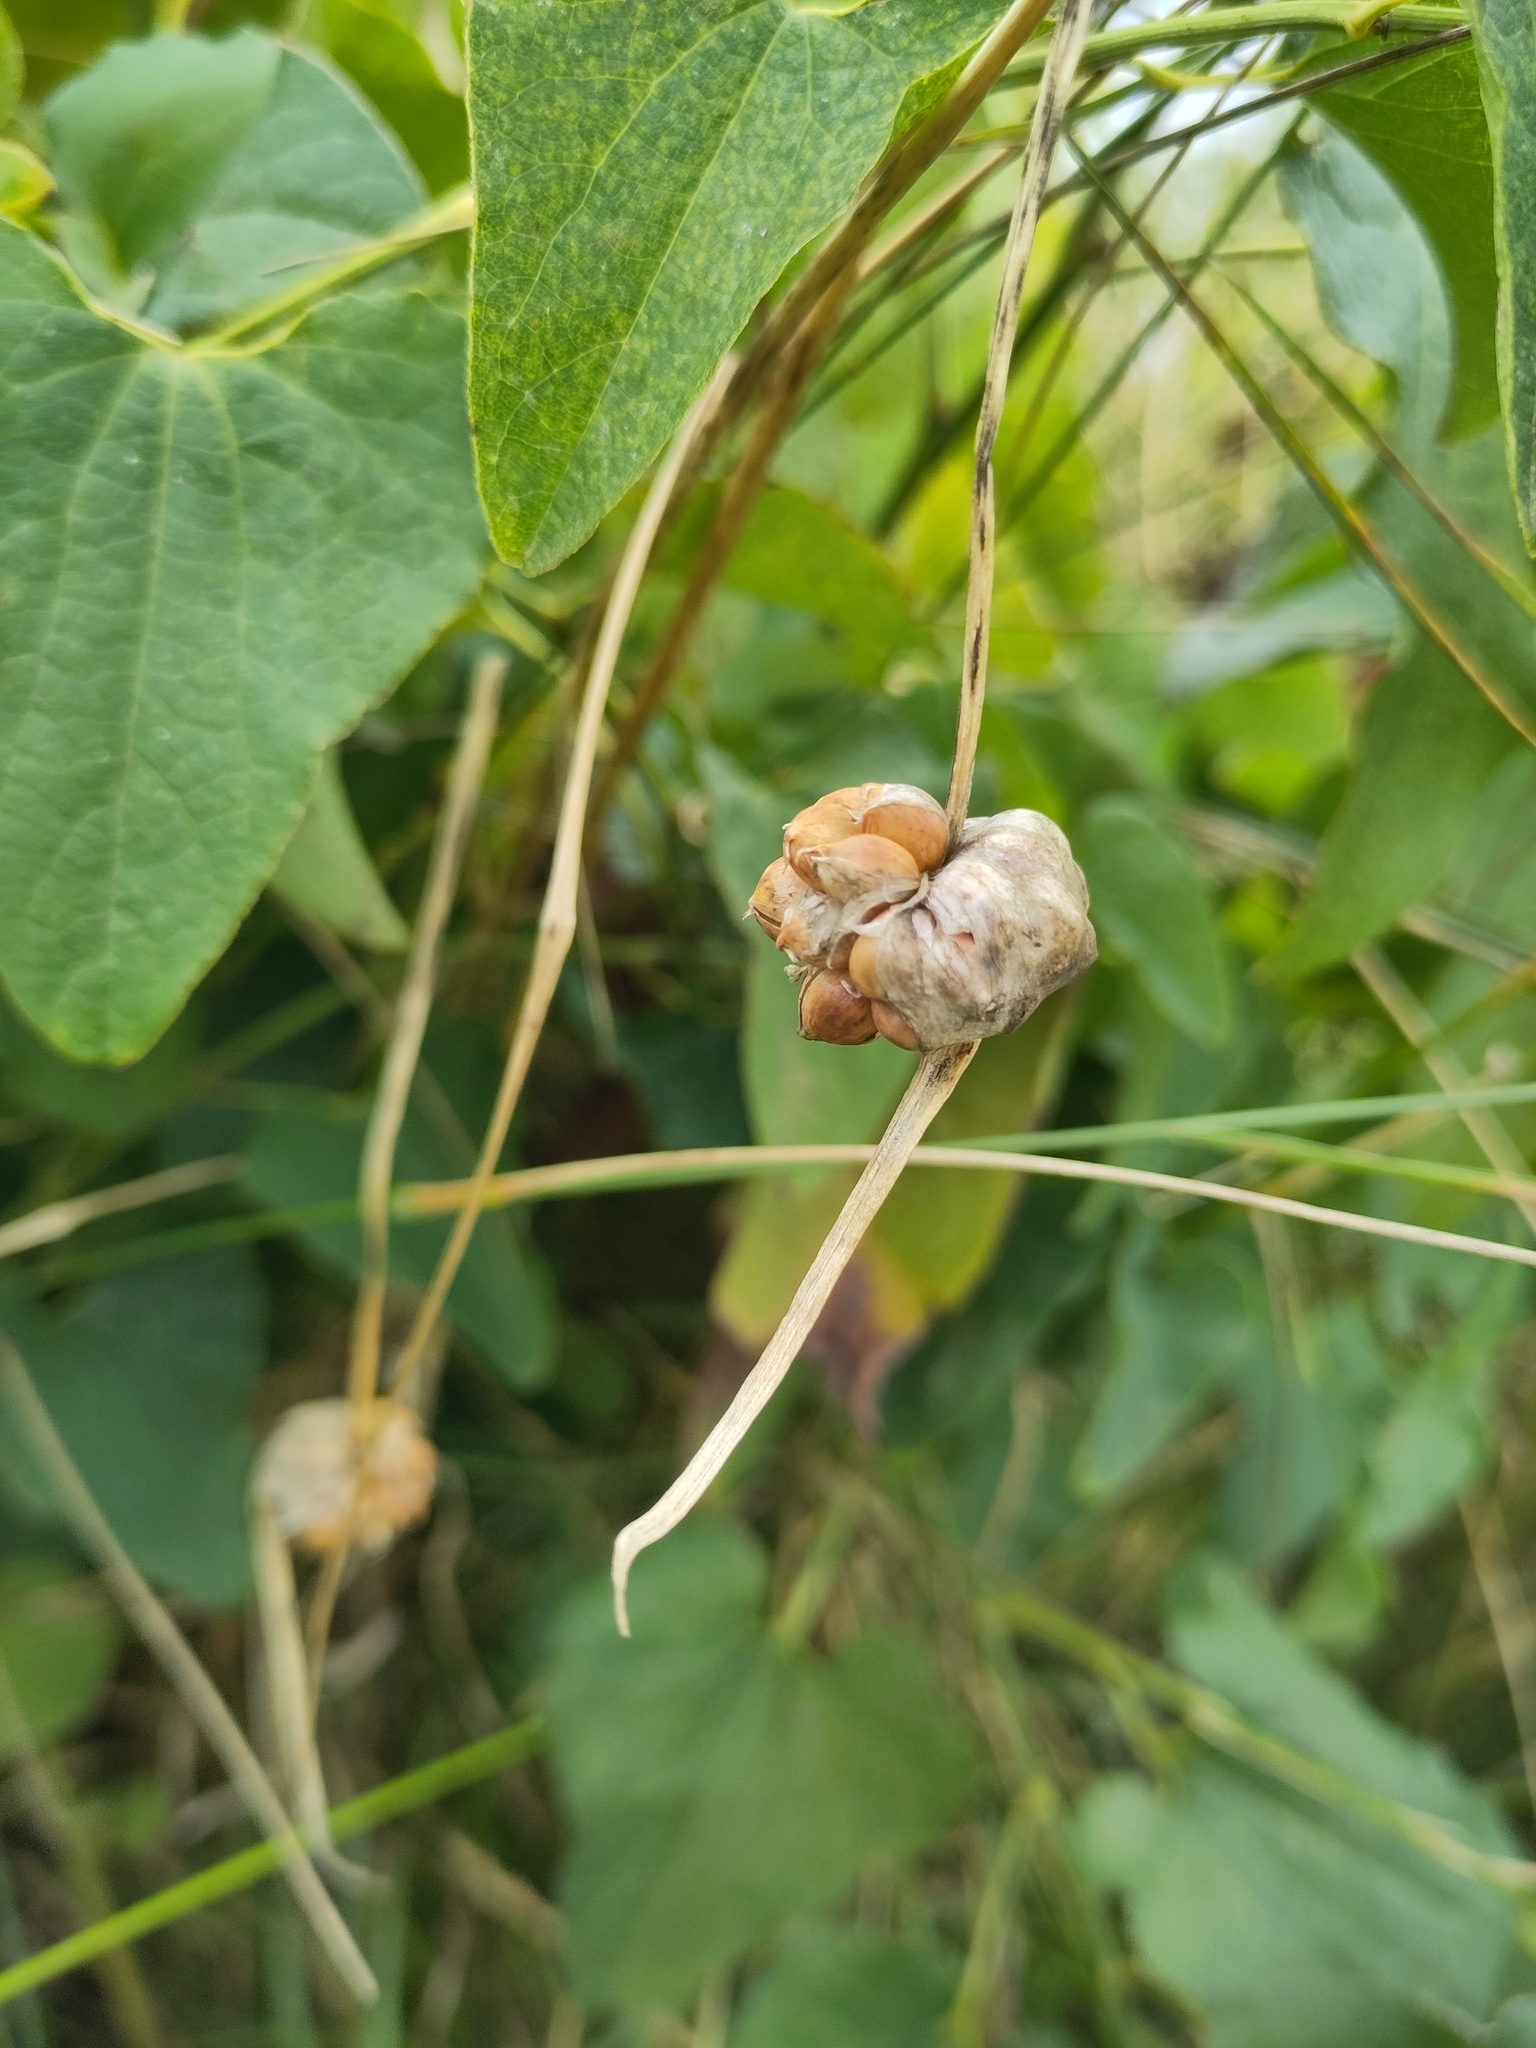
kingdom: Plantae
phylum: Tracheophyta
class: Liliopsida
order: Asparagales
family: Amaryllidaceae
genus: Allium
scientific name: Allium sativum
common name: Garlic
